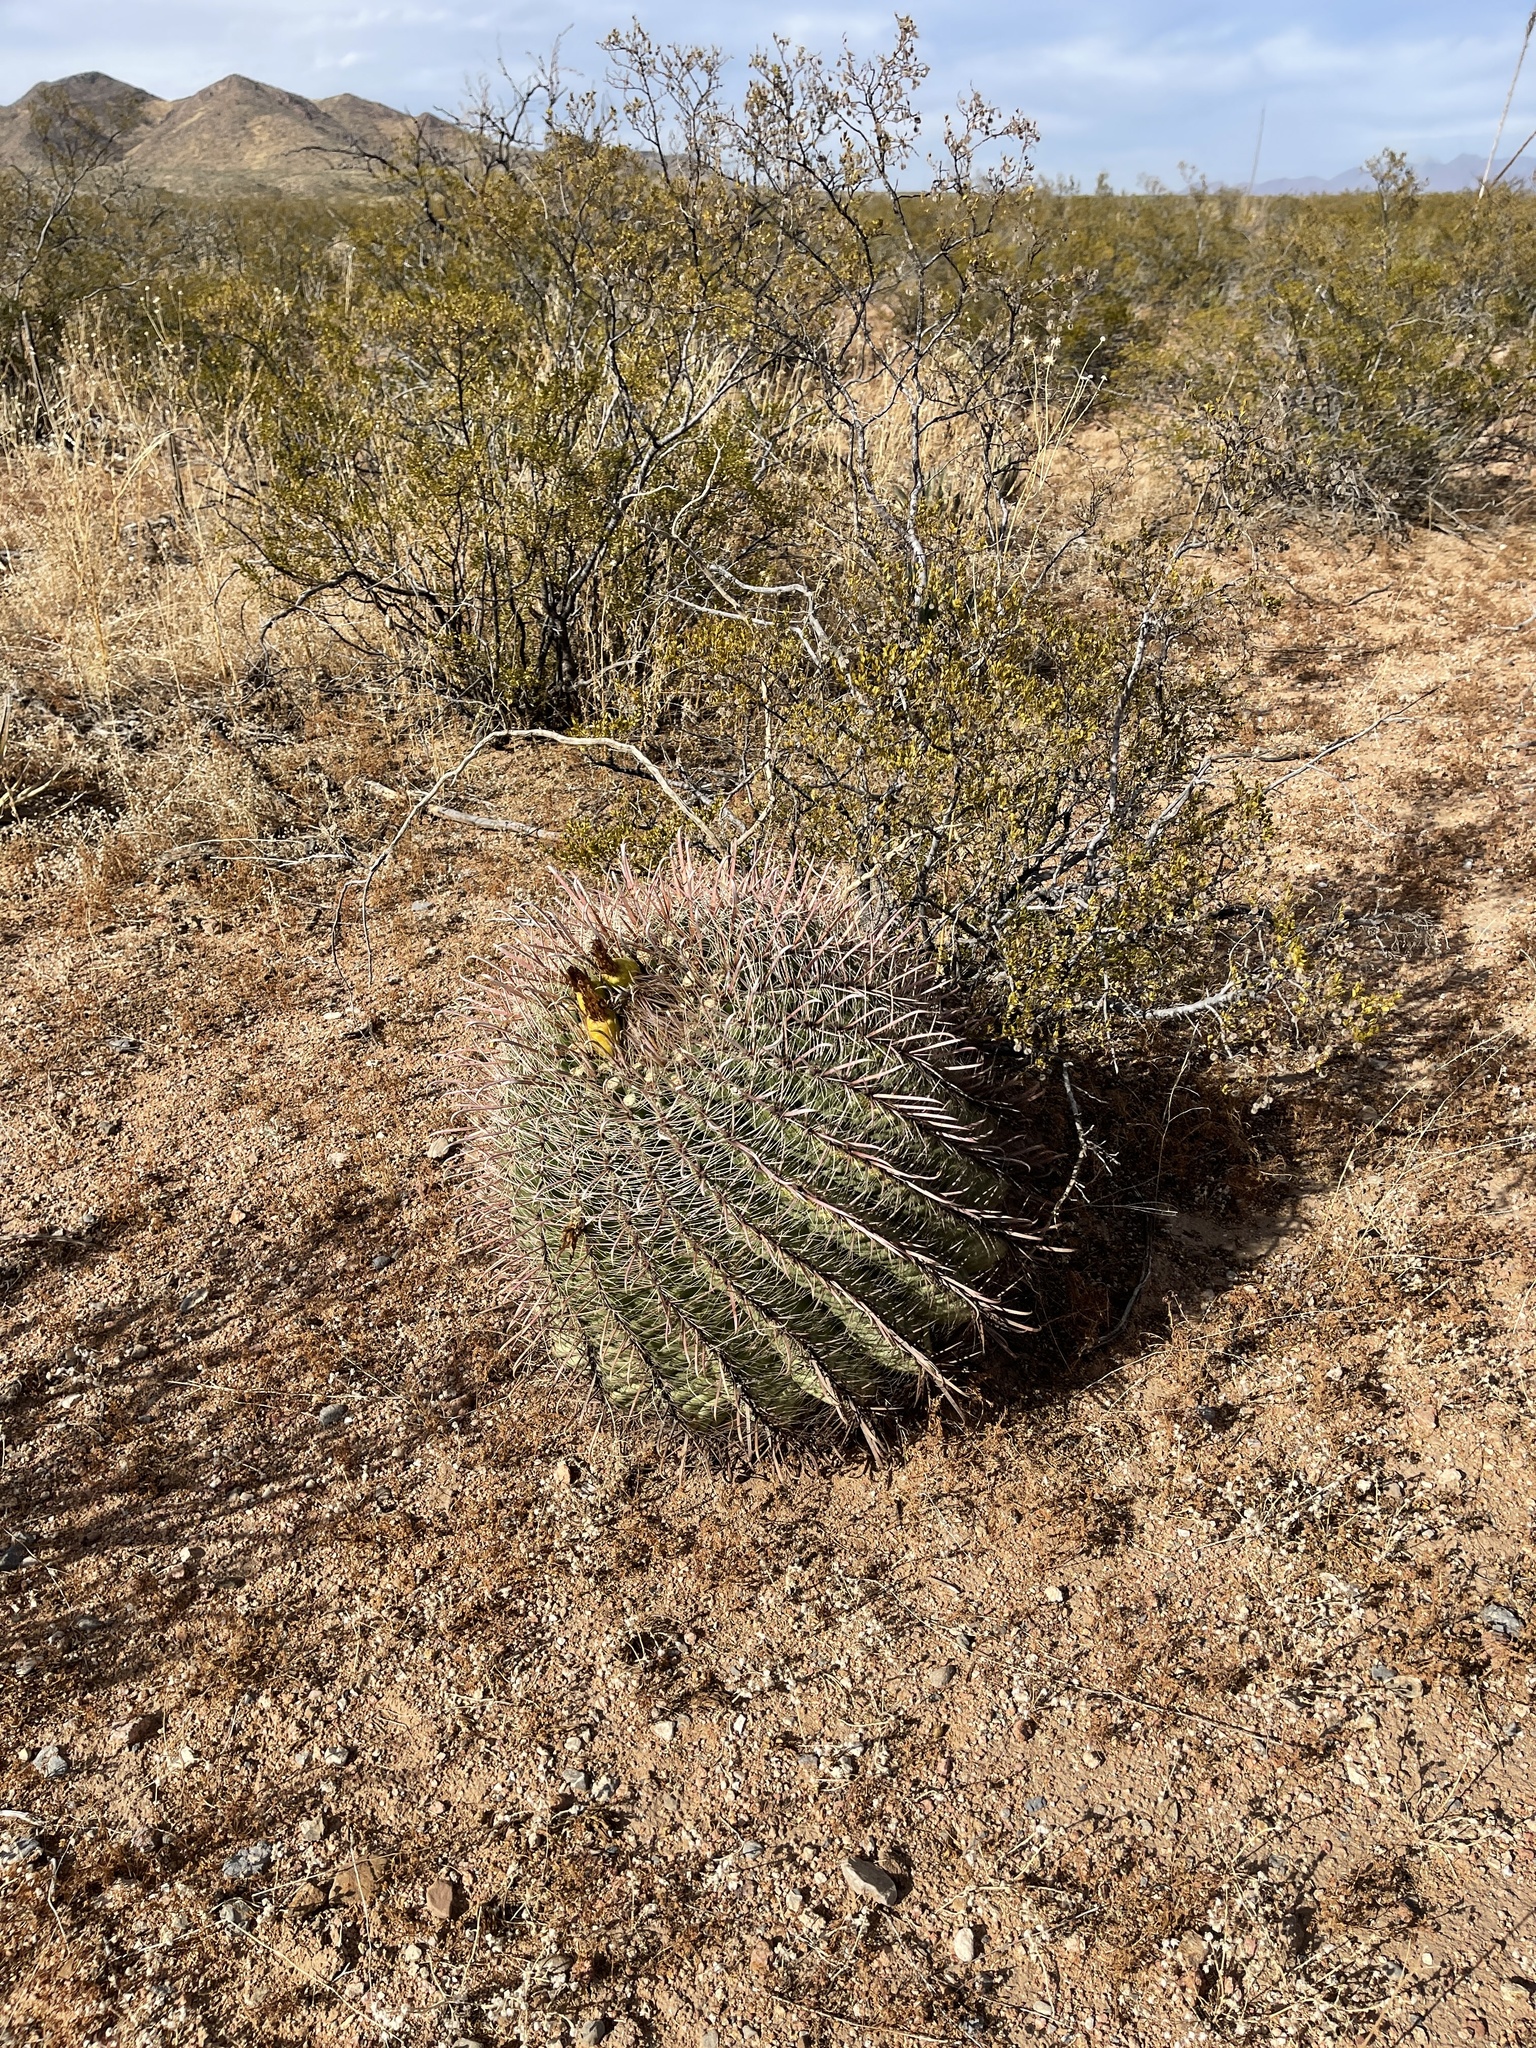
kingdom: Plantae
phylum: Tracheophyta
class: Magnoliopsida
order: Caryophyllales
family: Cactaceae
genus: Ferocactus
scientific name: Ferocactus wislizeni
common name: Candy barrel cactus
